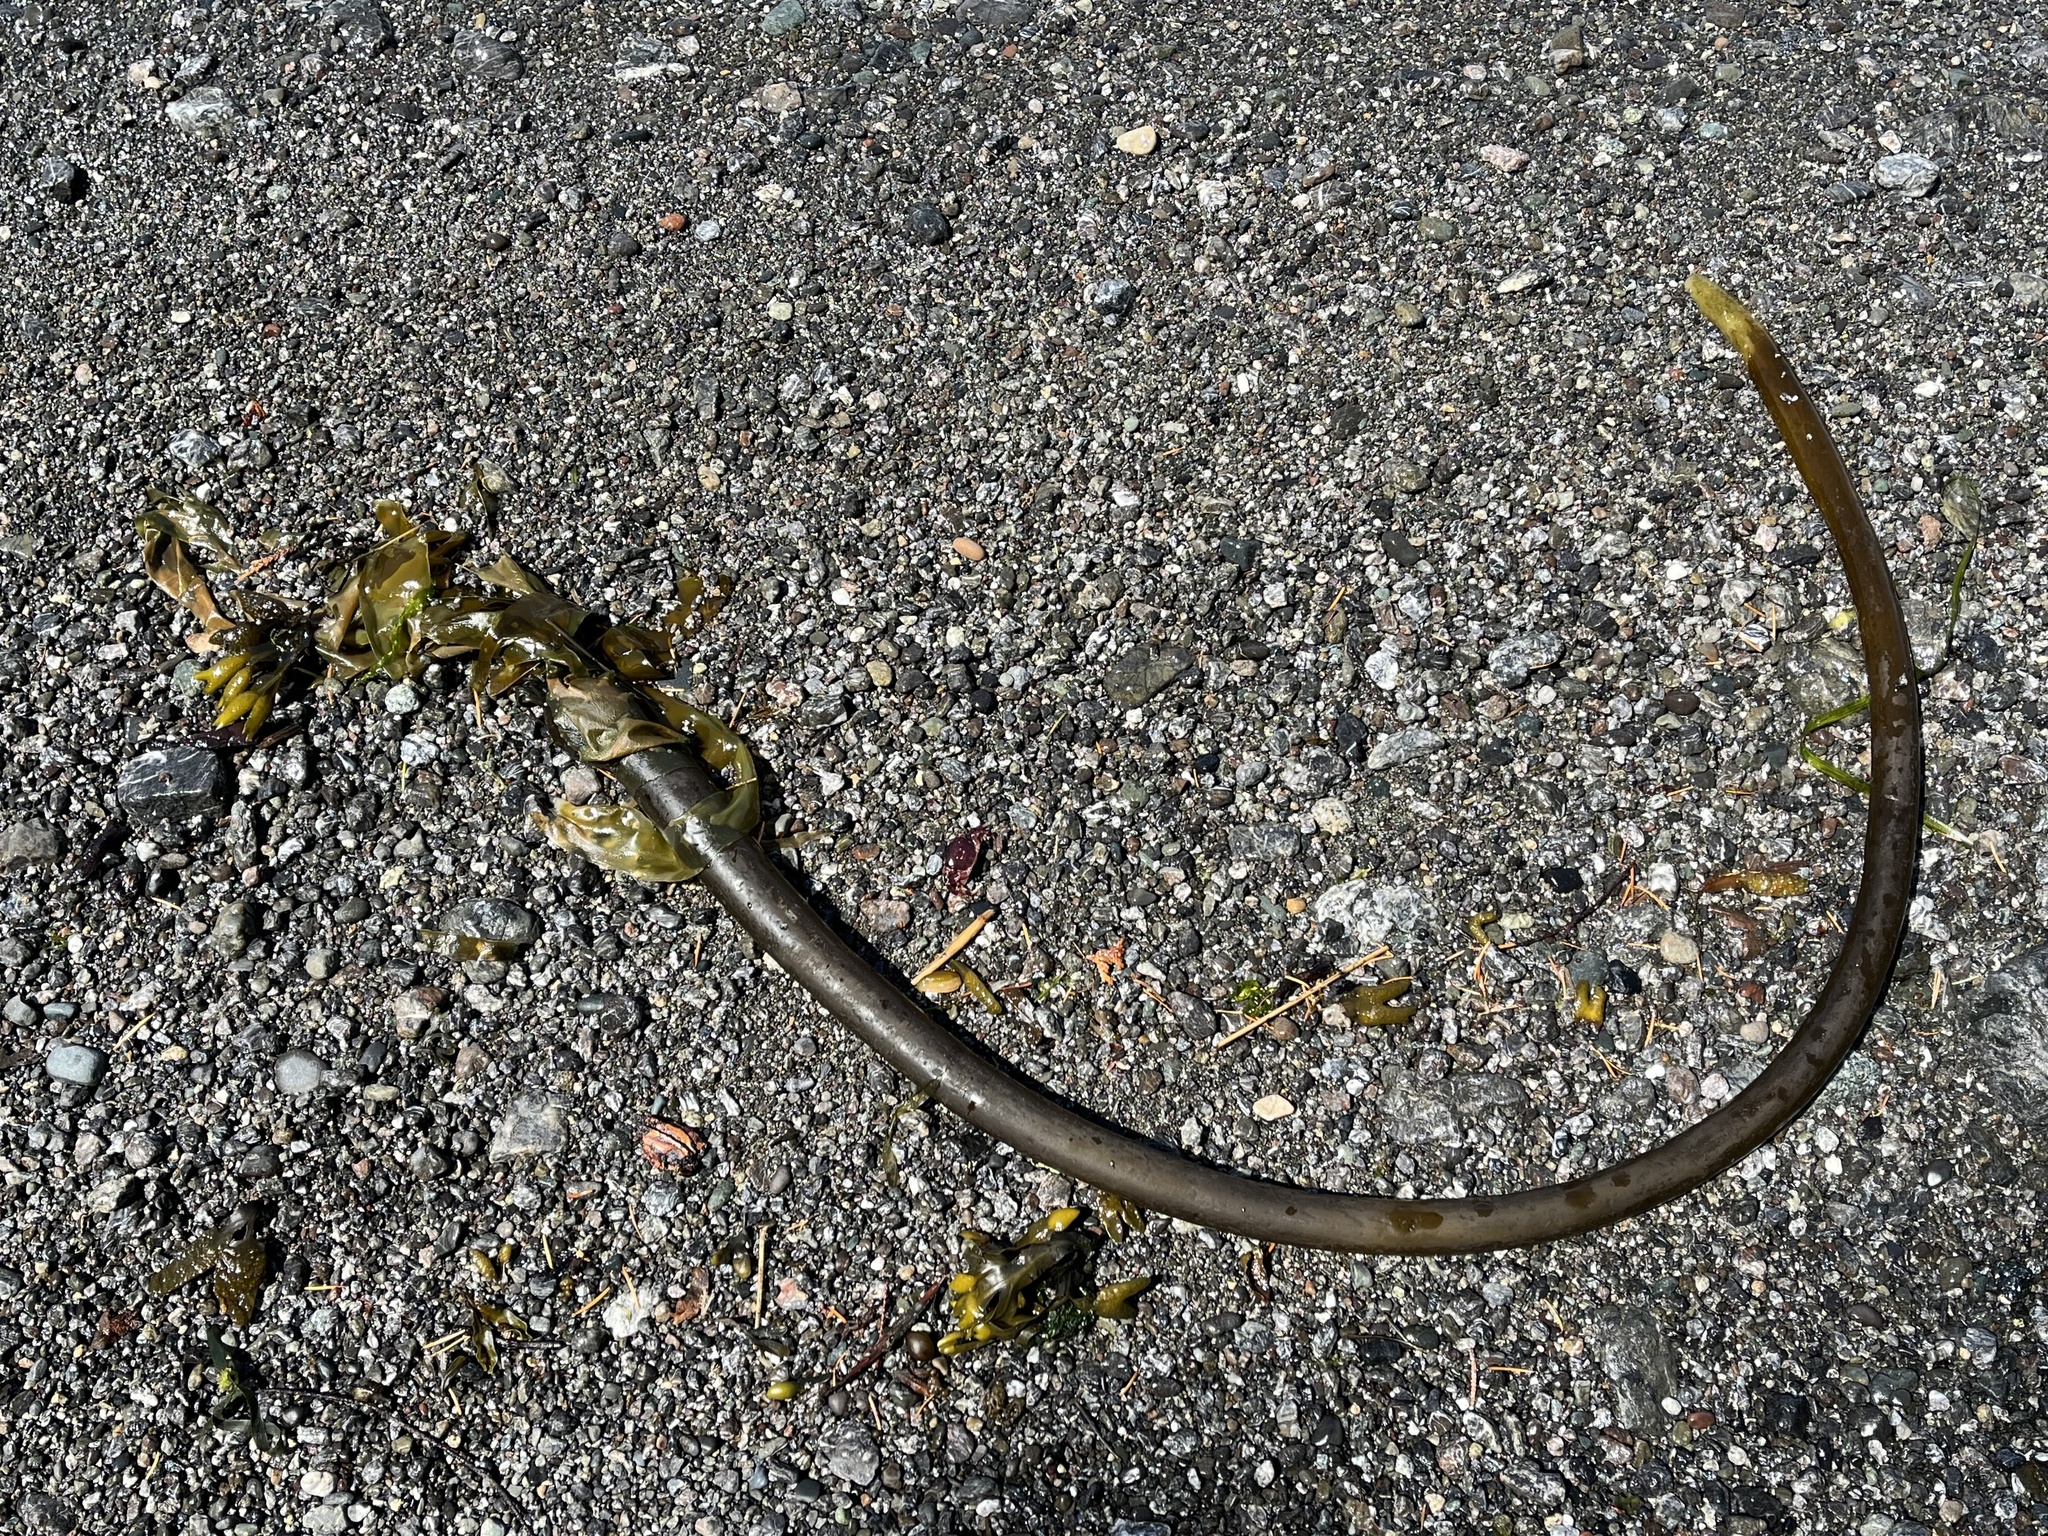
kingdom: Chromista
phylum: Ochrophyta
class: Phaeophyceae
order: Fucales
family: Fucaceae
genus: Fucus
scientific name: Fucus distichus
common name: Rockweed
